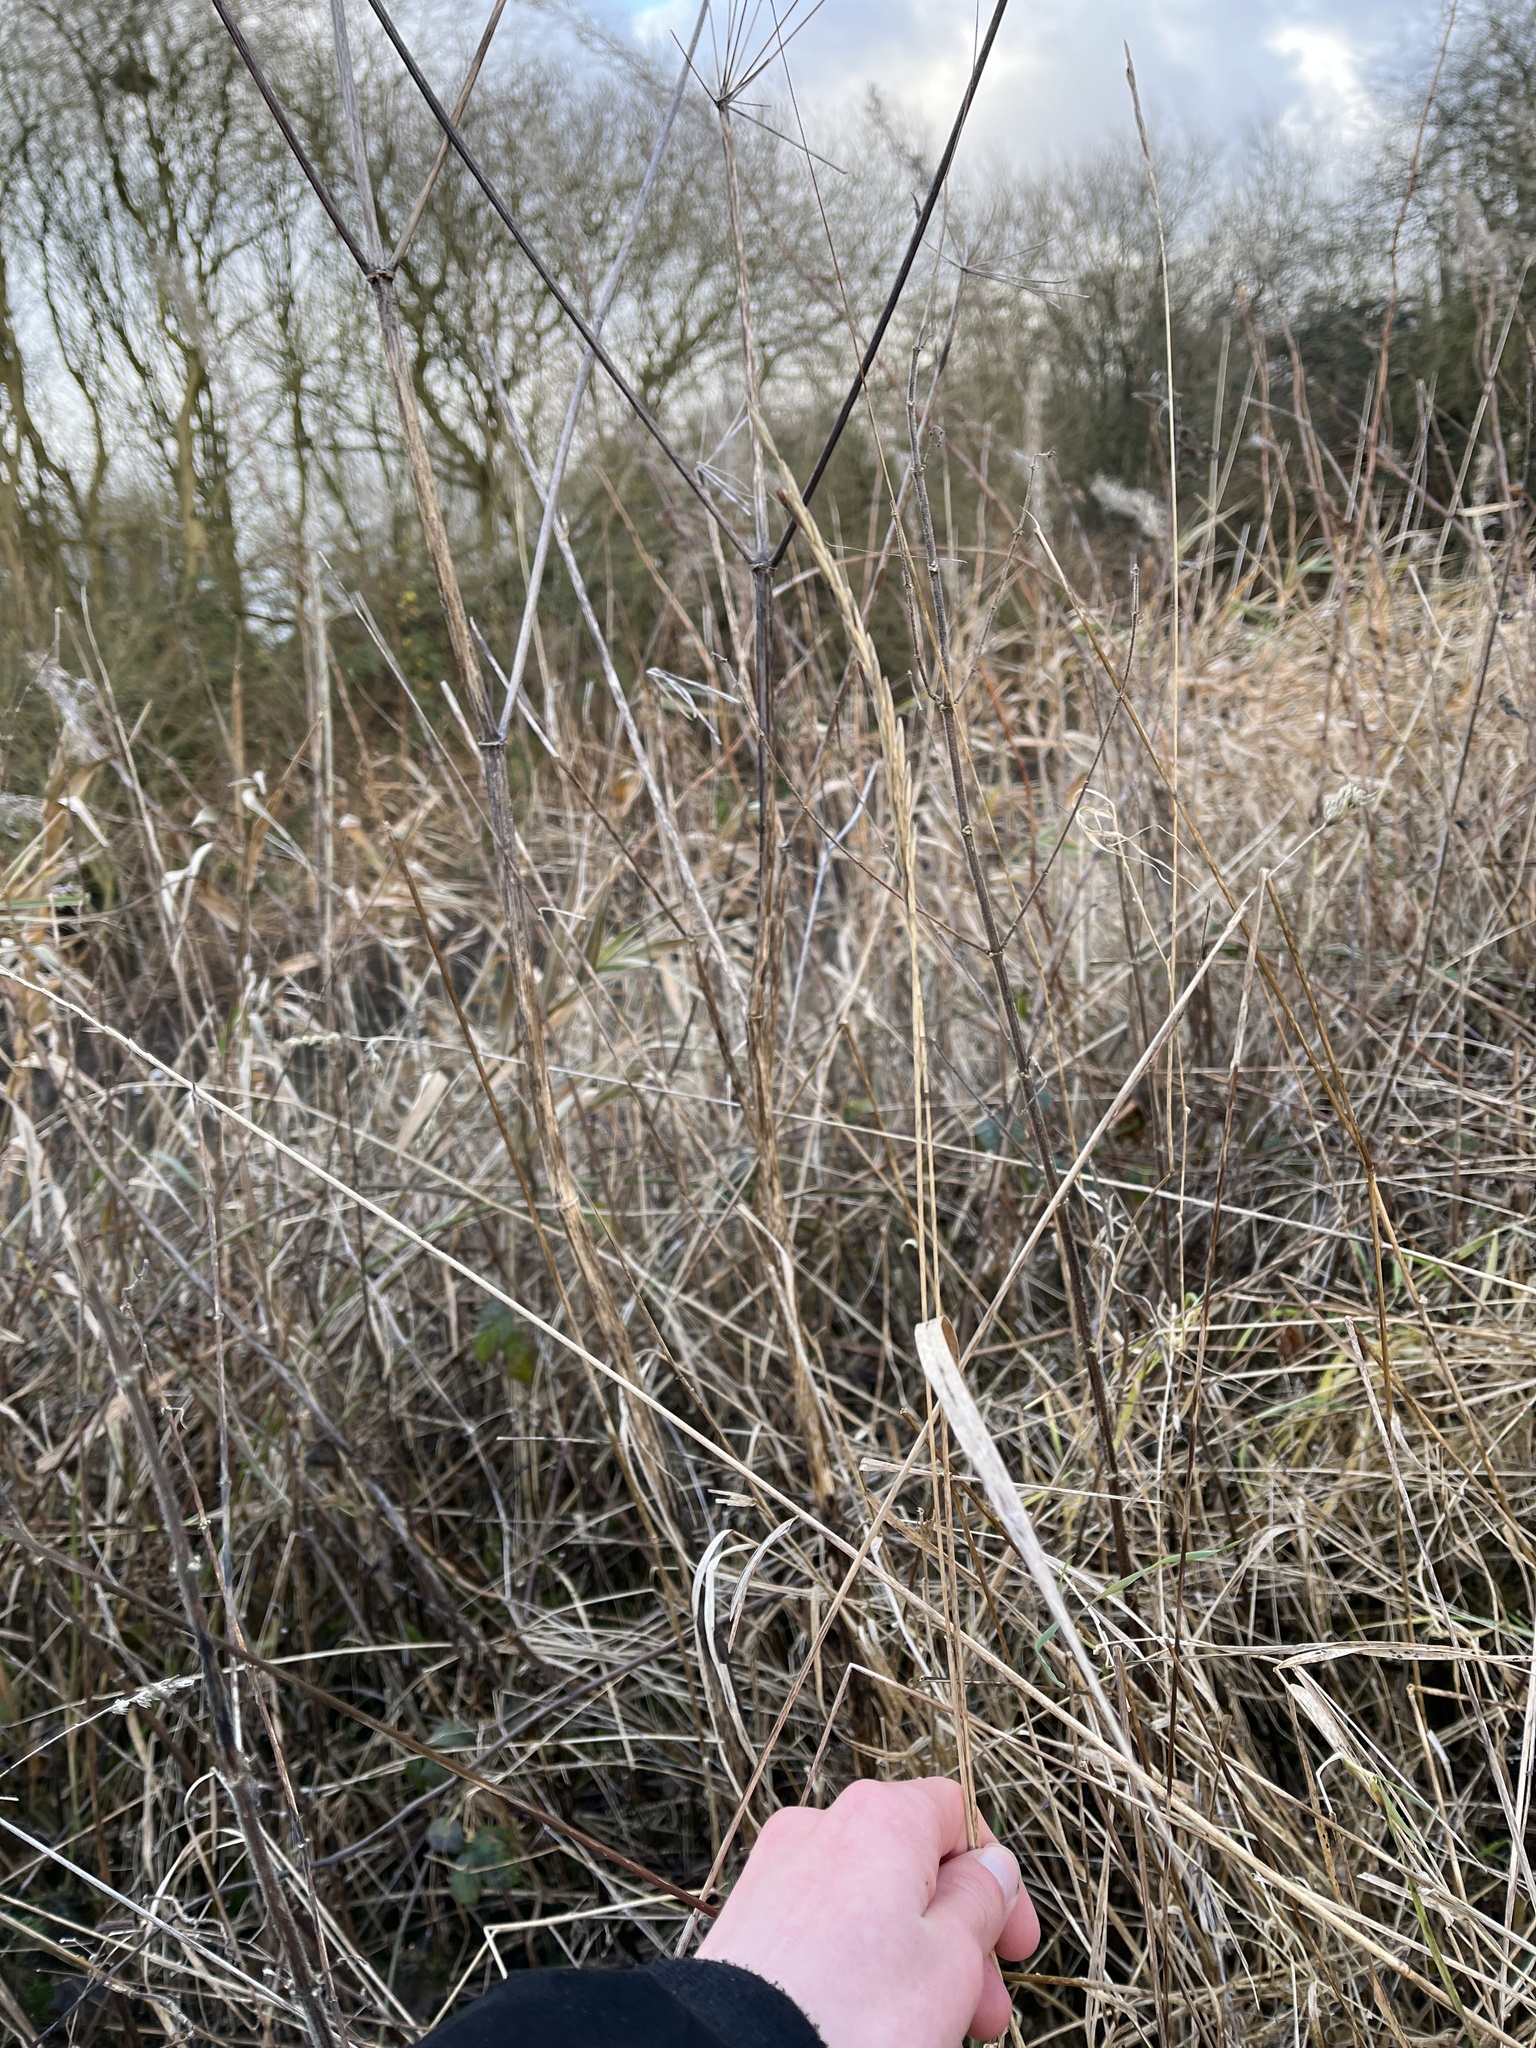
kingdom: Plantae
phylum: Tracheophyta
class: Liliopsida
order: Poales
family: Poaceae
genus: Elymus
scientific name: Elymus repens
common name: Quackgrass
